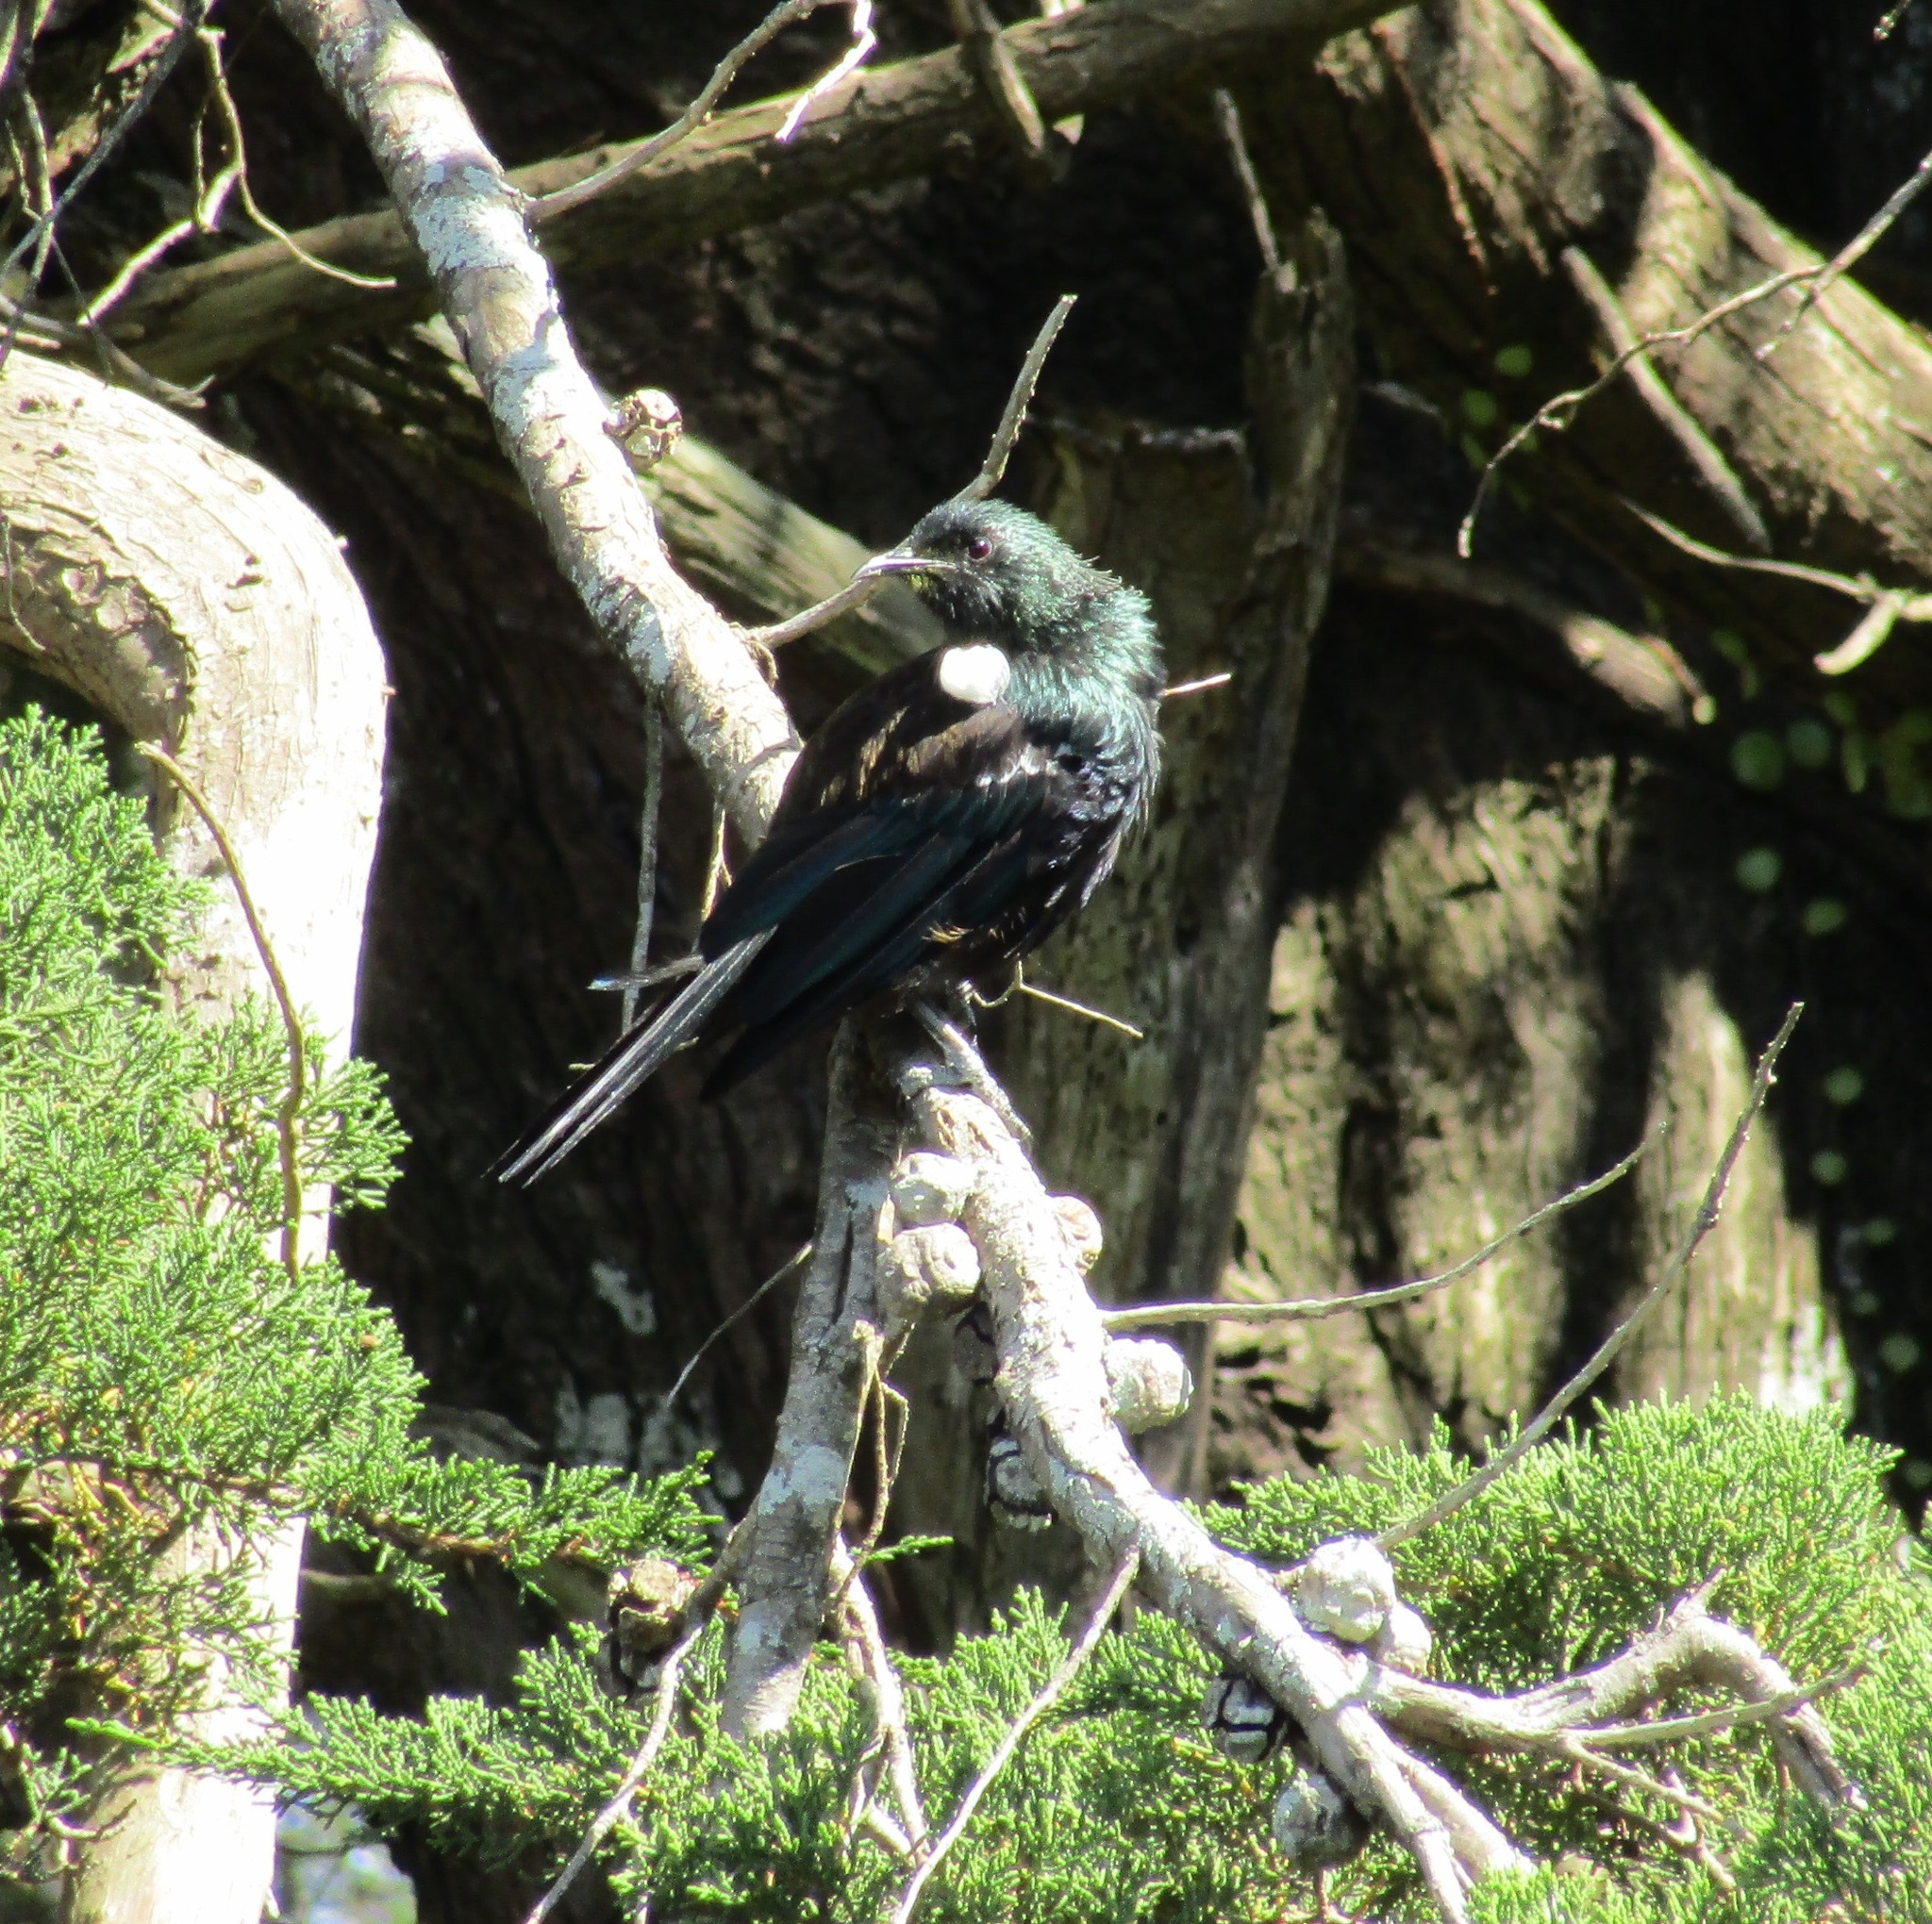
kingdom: Animalia
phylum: Chordata
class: Aves
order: Passeriformes
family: Meliphagidae
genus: Prosthemadera
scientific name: Prosthemadera novaeseelandiae
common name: Tui
